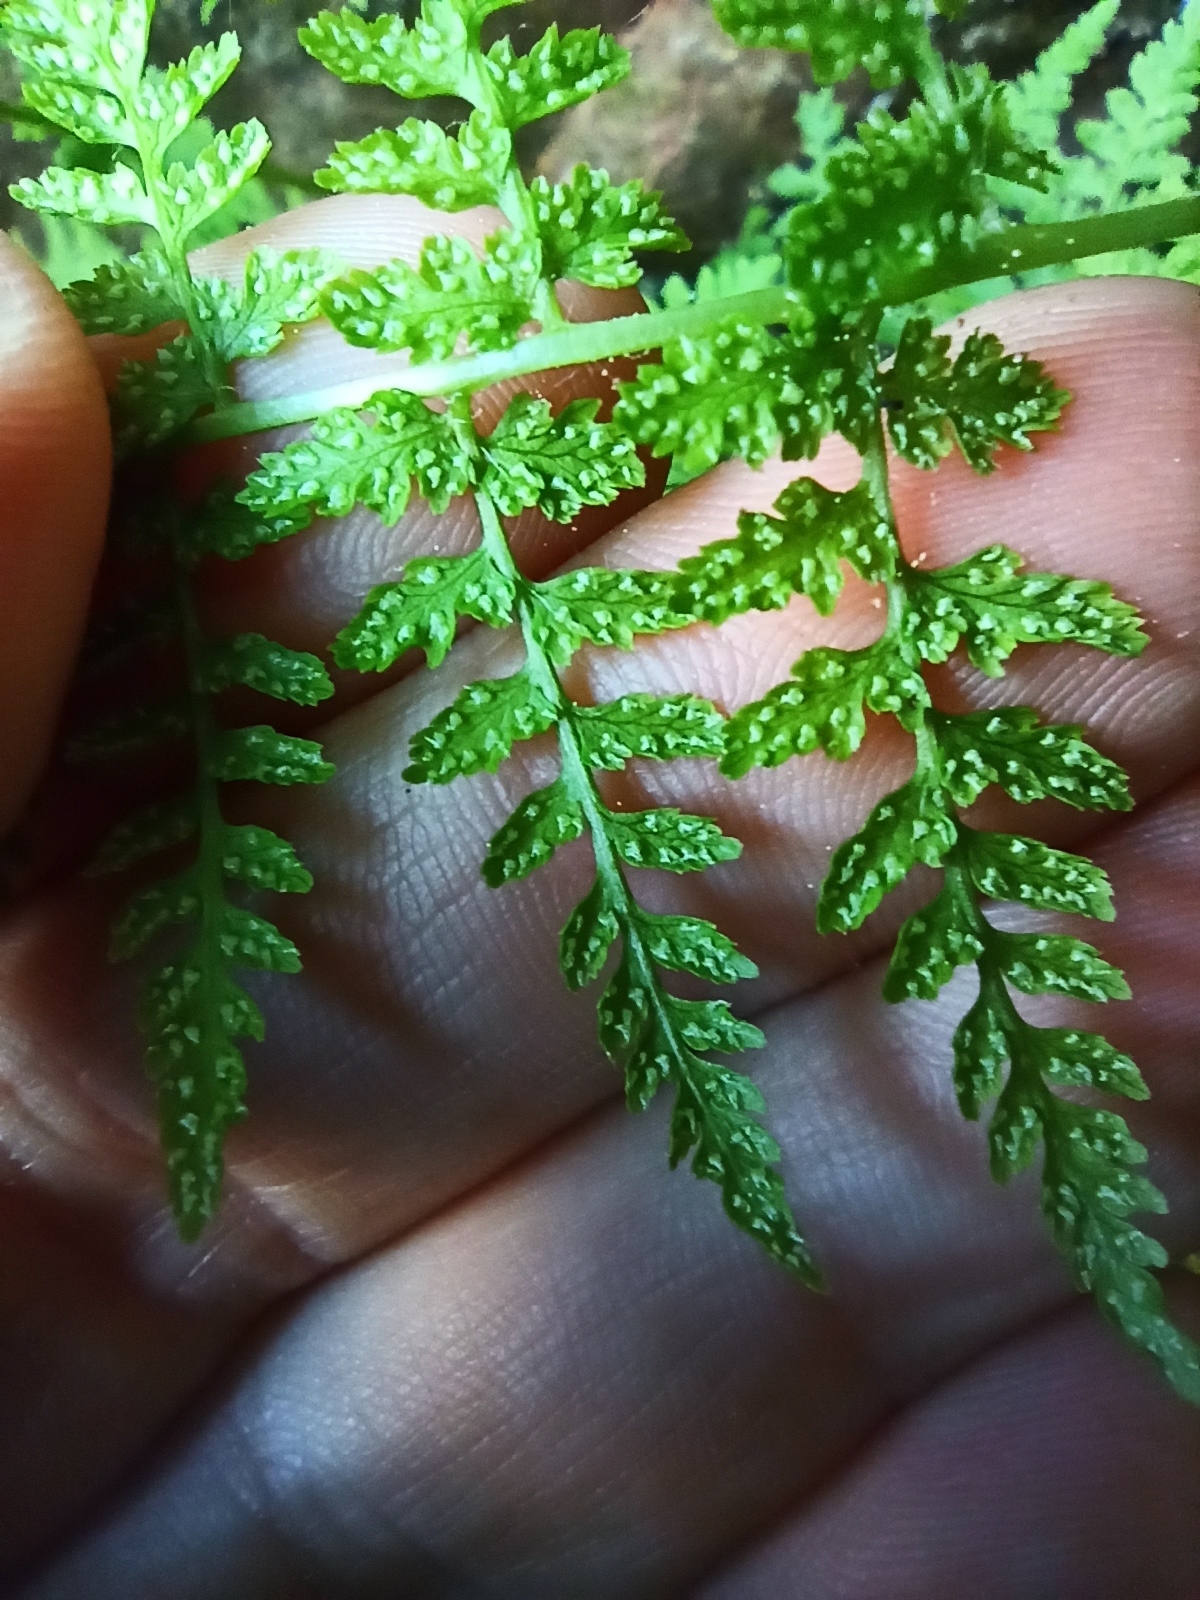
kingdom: Plantae
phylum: Tracheophyta
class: Polypodiopsida
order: Polypodiales
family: Cystopteridaceae
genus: Cystopteris
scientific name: Cystopteris fragilis
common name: Brittle bladder fern
